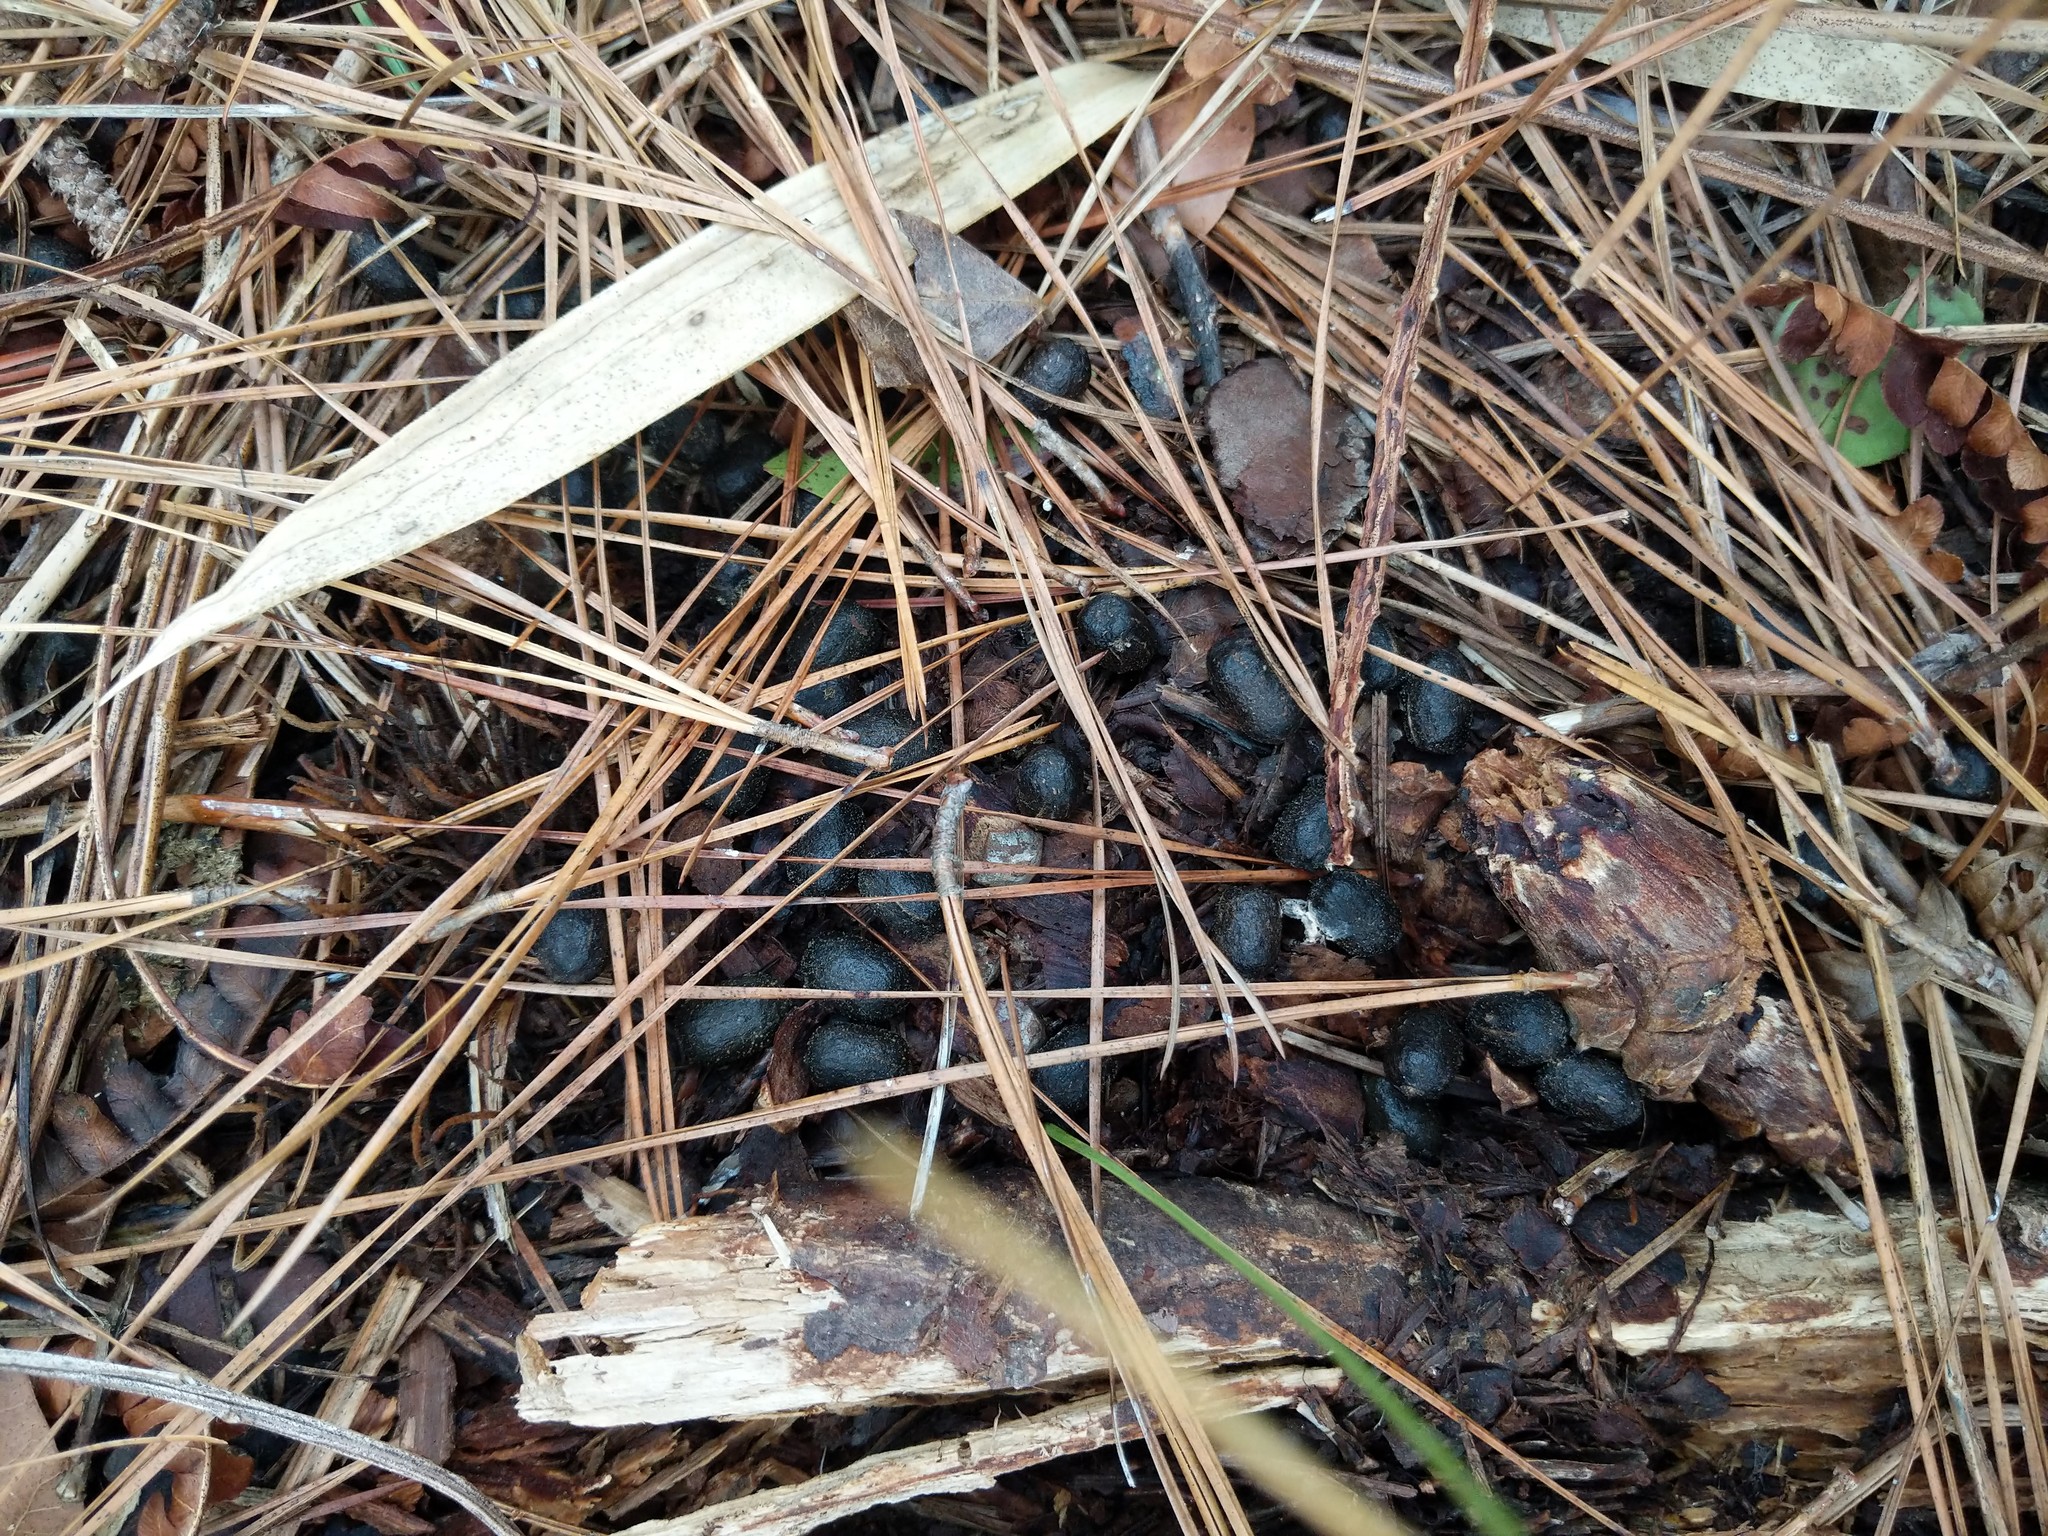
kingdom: Animalia
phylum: Chordata
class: Mammalia
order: Artiodactyla
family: Cervidae
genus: Odocoileus
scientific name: Odocoileus virginianus
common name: White-tailed deer
